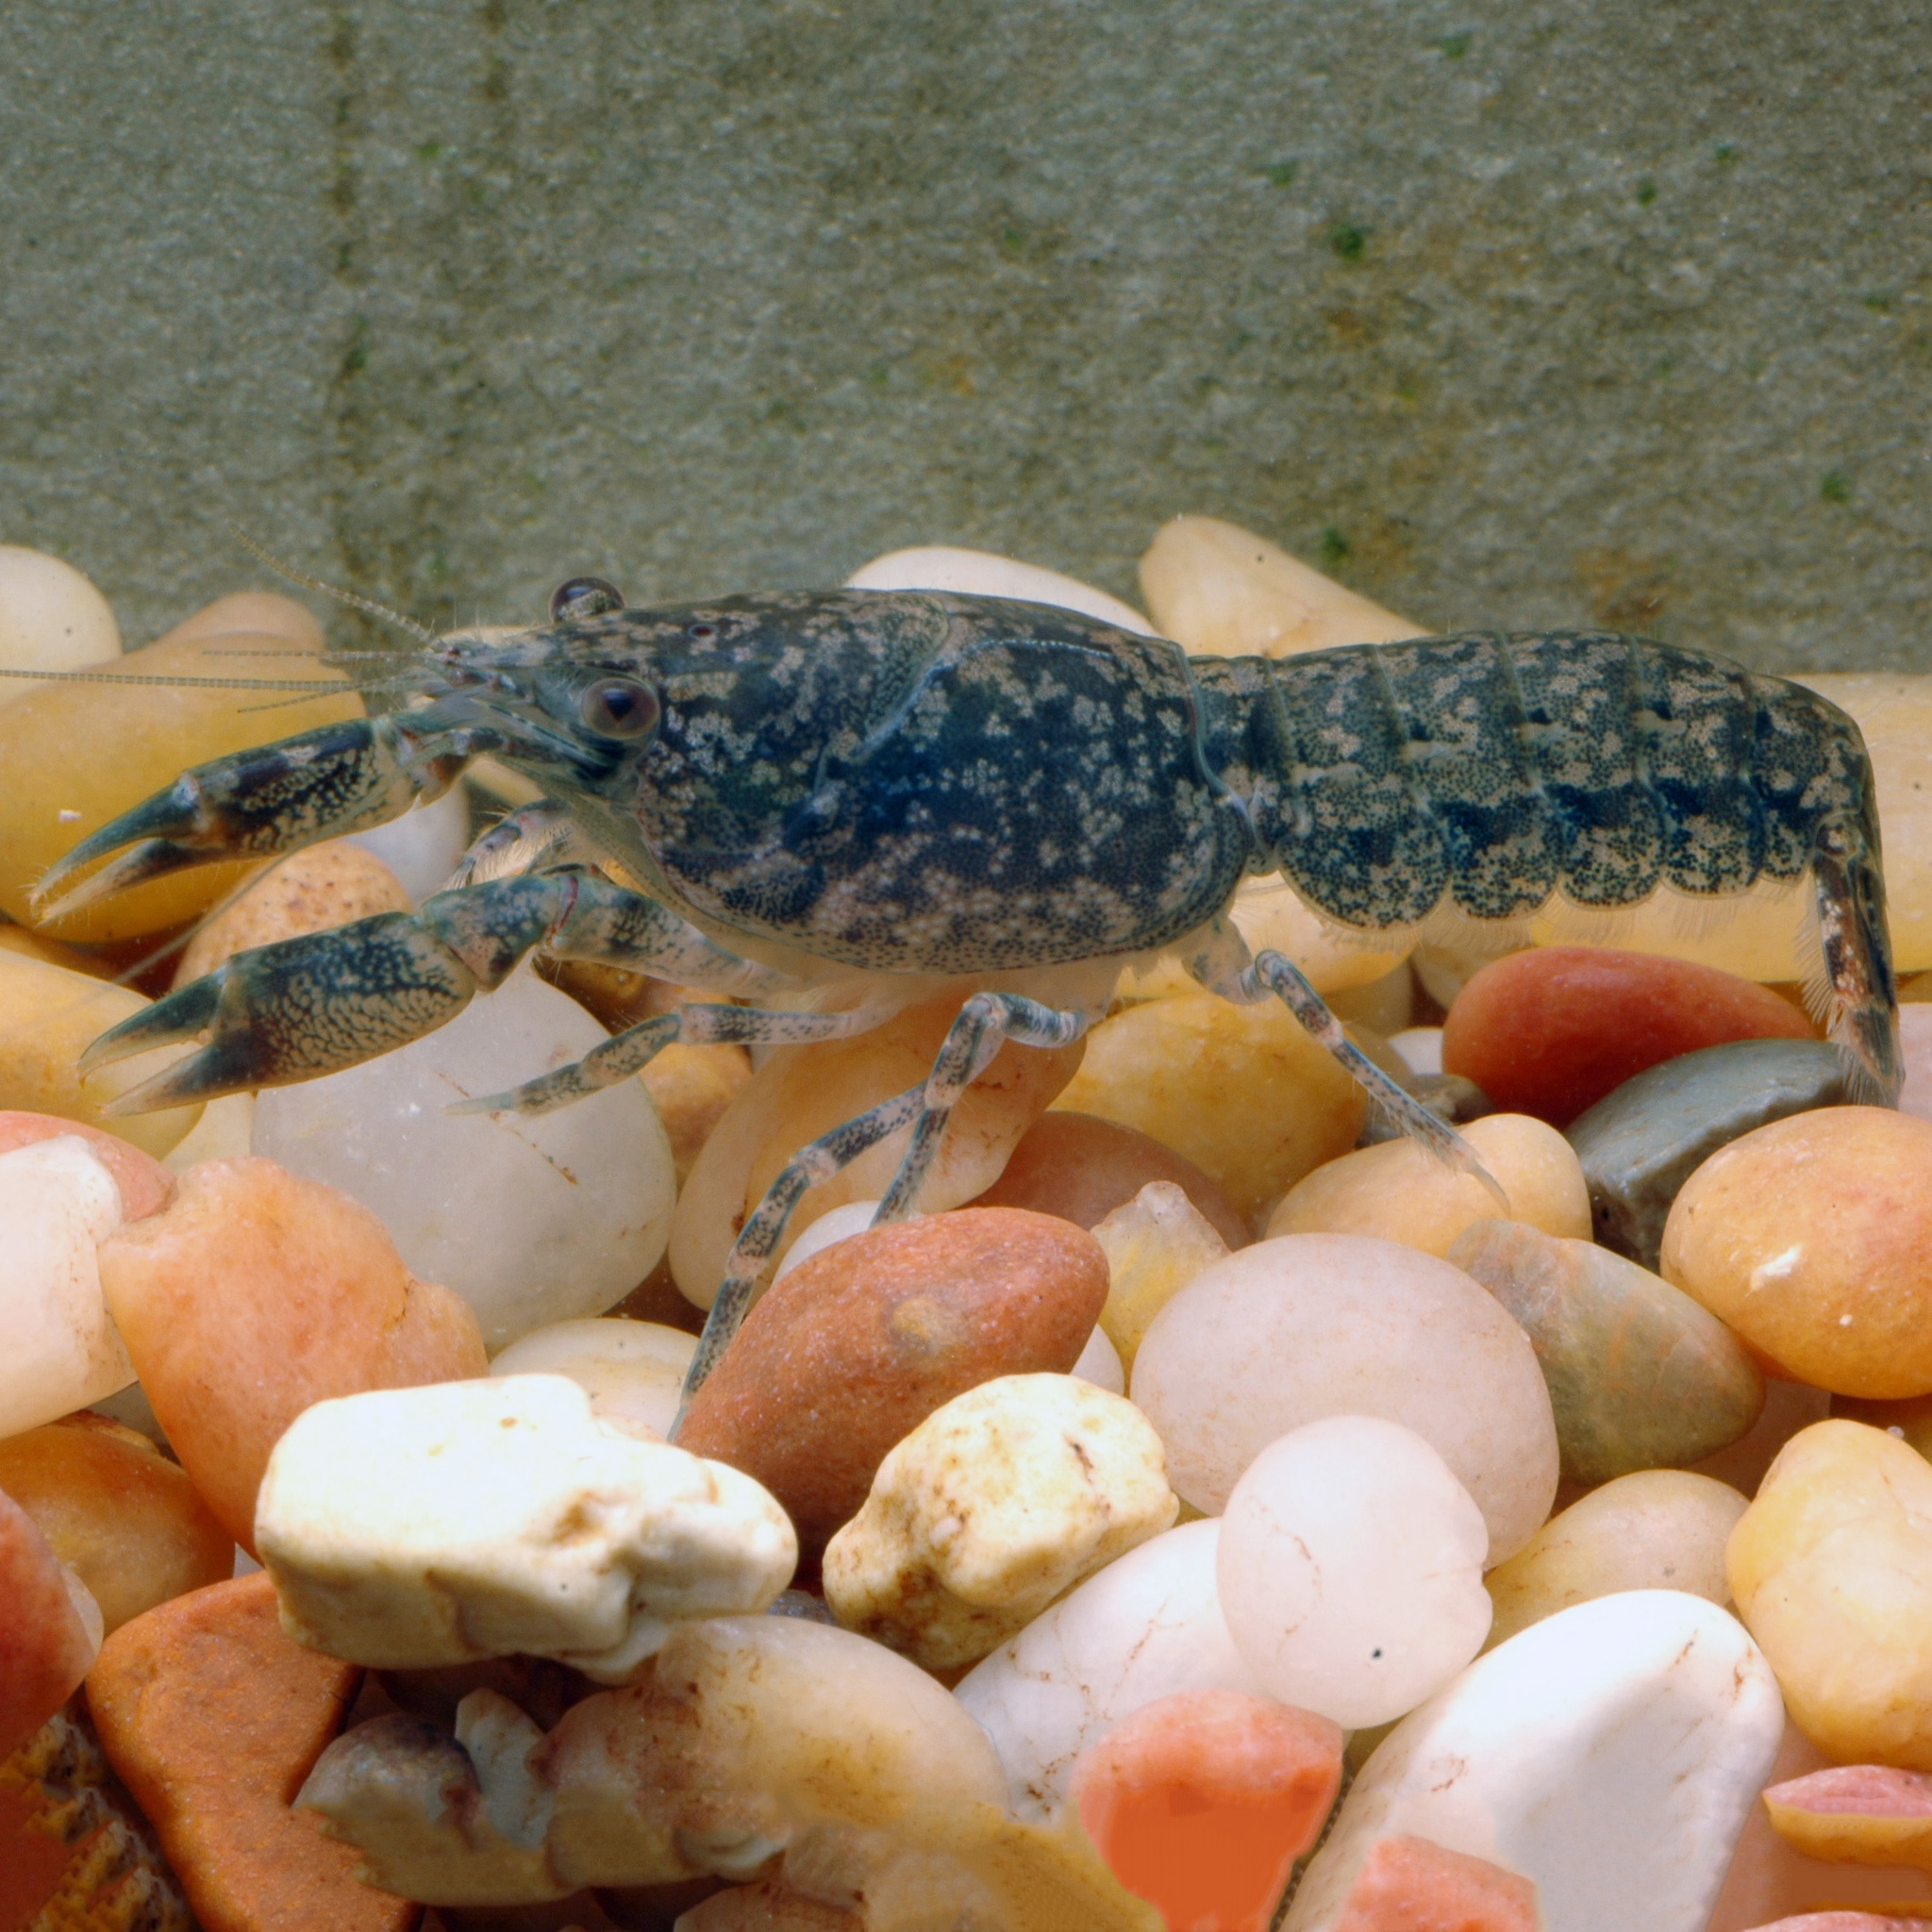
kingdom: Animalia
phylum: Arthropoda
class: Malacostraca
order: Decapoda
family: Cambaridae
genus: Cambarellus
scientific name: Cambarellus shufeldtii
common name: Cajun dwarf crayfish
